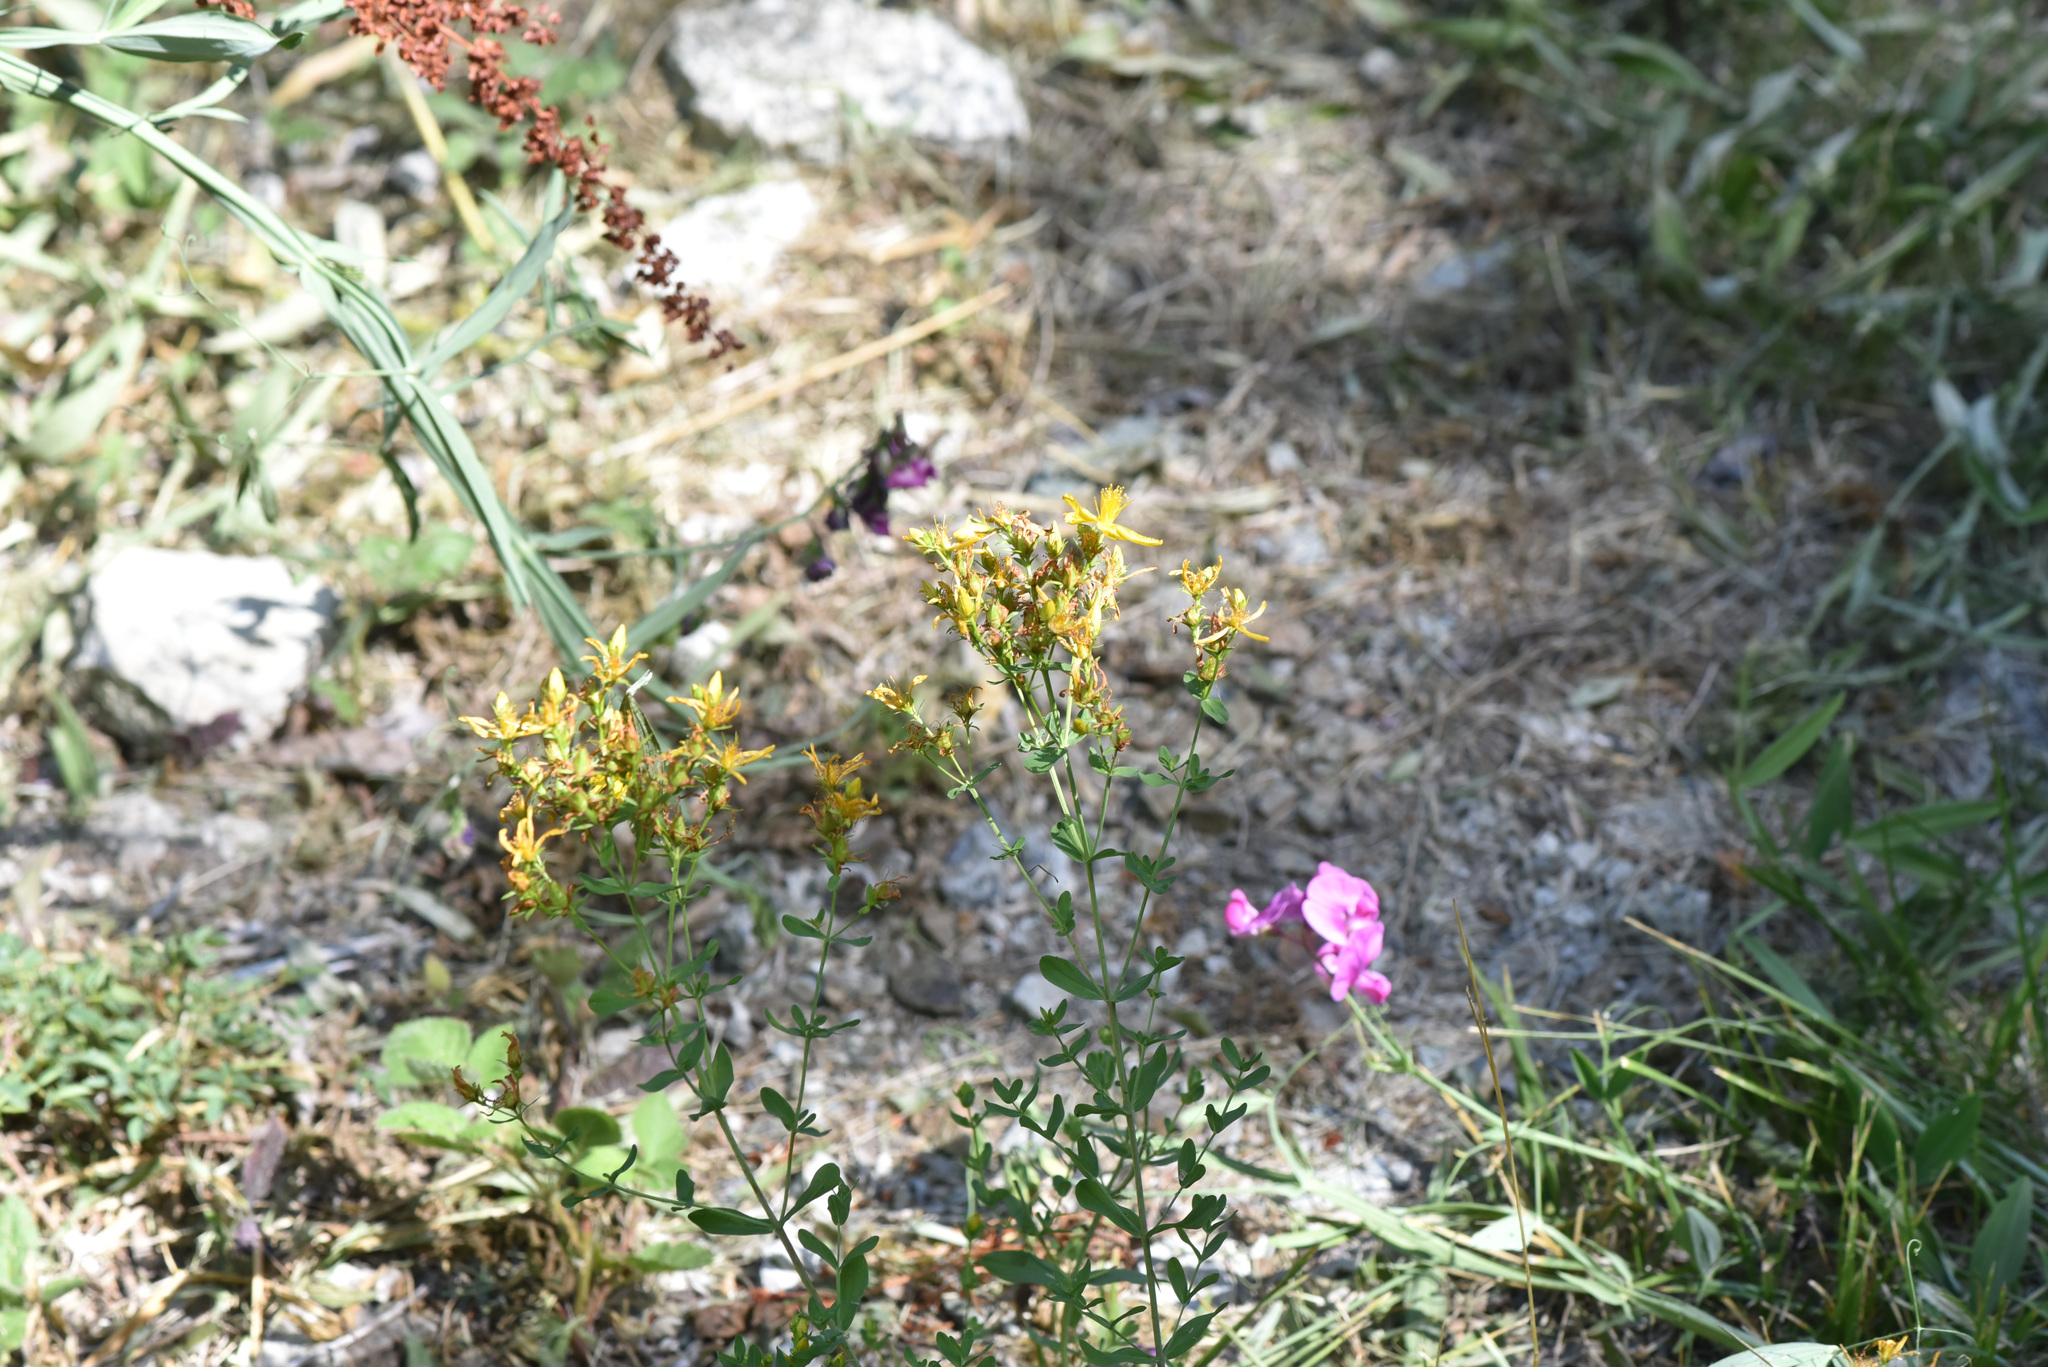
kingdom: Plantae
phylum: Tracheophyta
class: Magnoliopsida
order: Malpighiales
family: Hypericaceae
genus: Hypericum
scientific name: Hypericum perforatum
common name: Common st. johnswort
